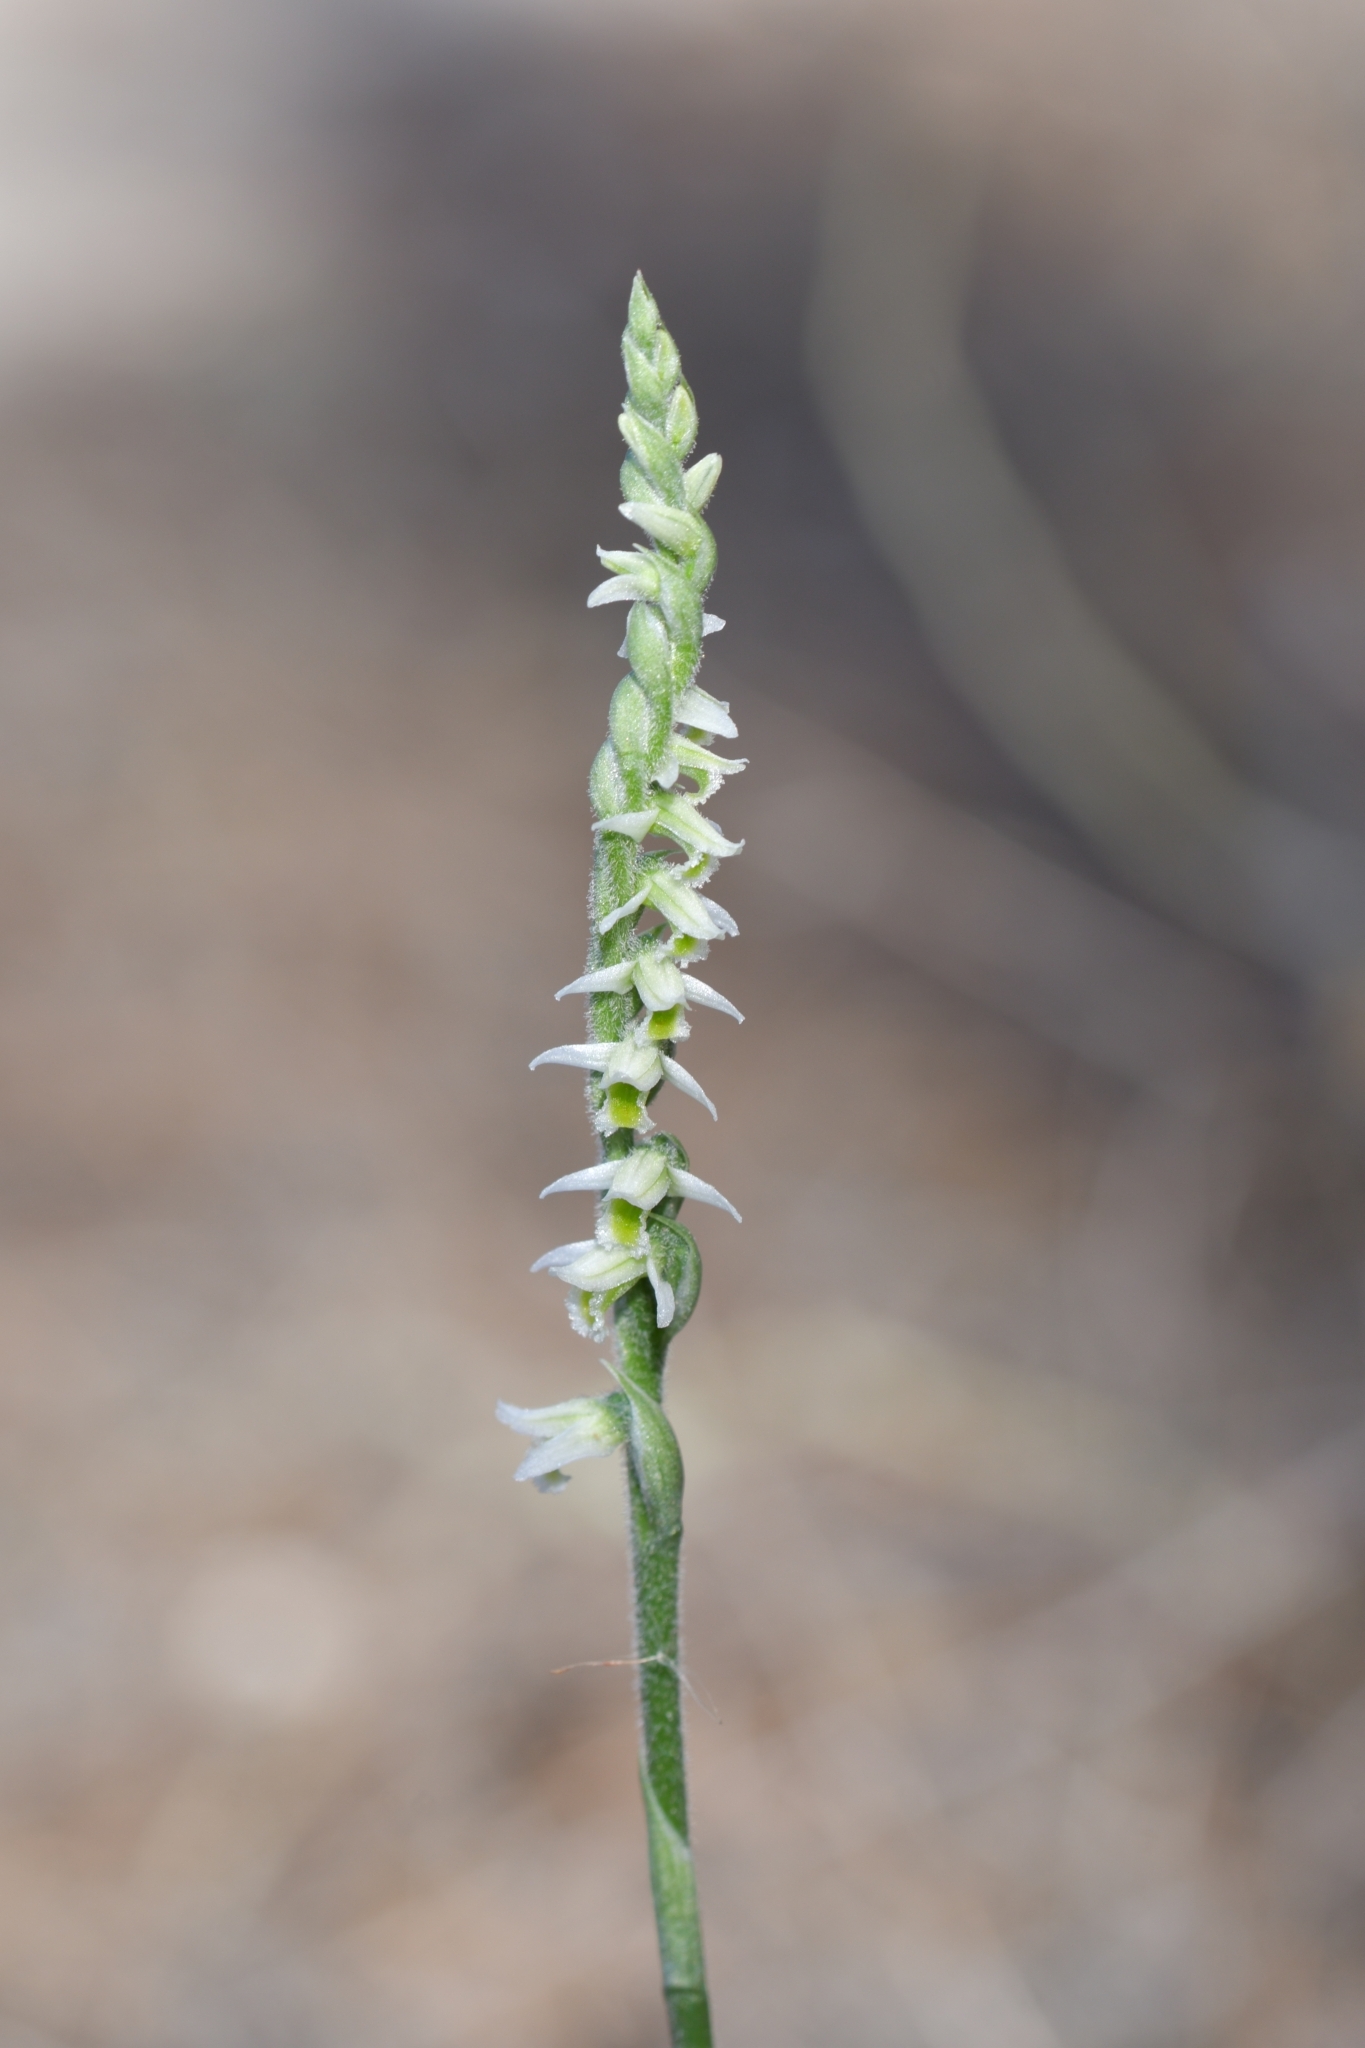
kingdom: Plantae
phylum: Tracheophyta
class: Liliopsida
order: Asparagales
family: Orchidaceae
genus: Spiranthes
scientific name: Spiranthes spiralis
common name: Autumn lady's-tresses
